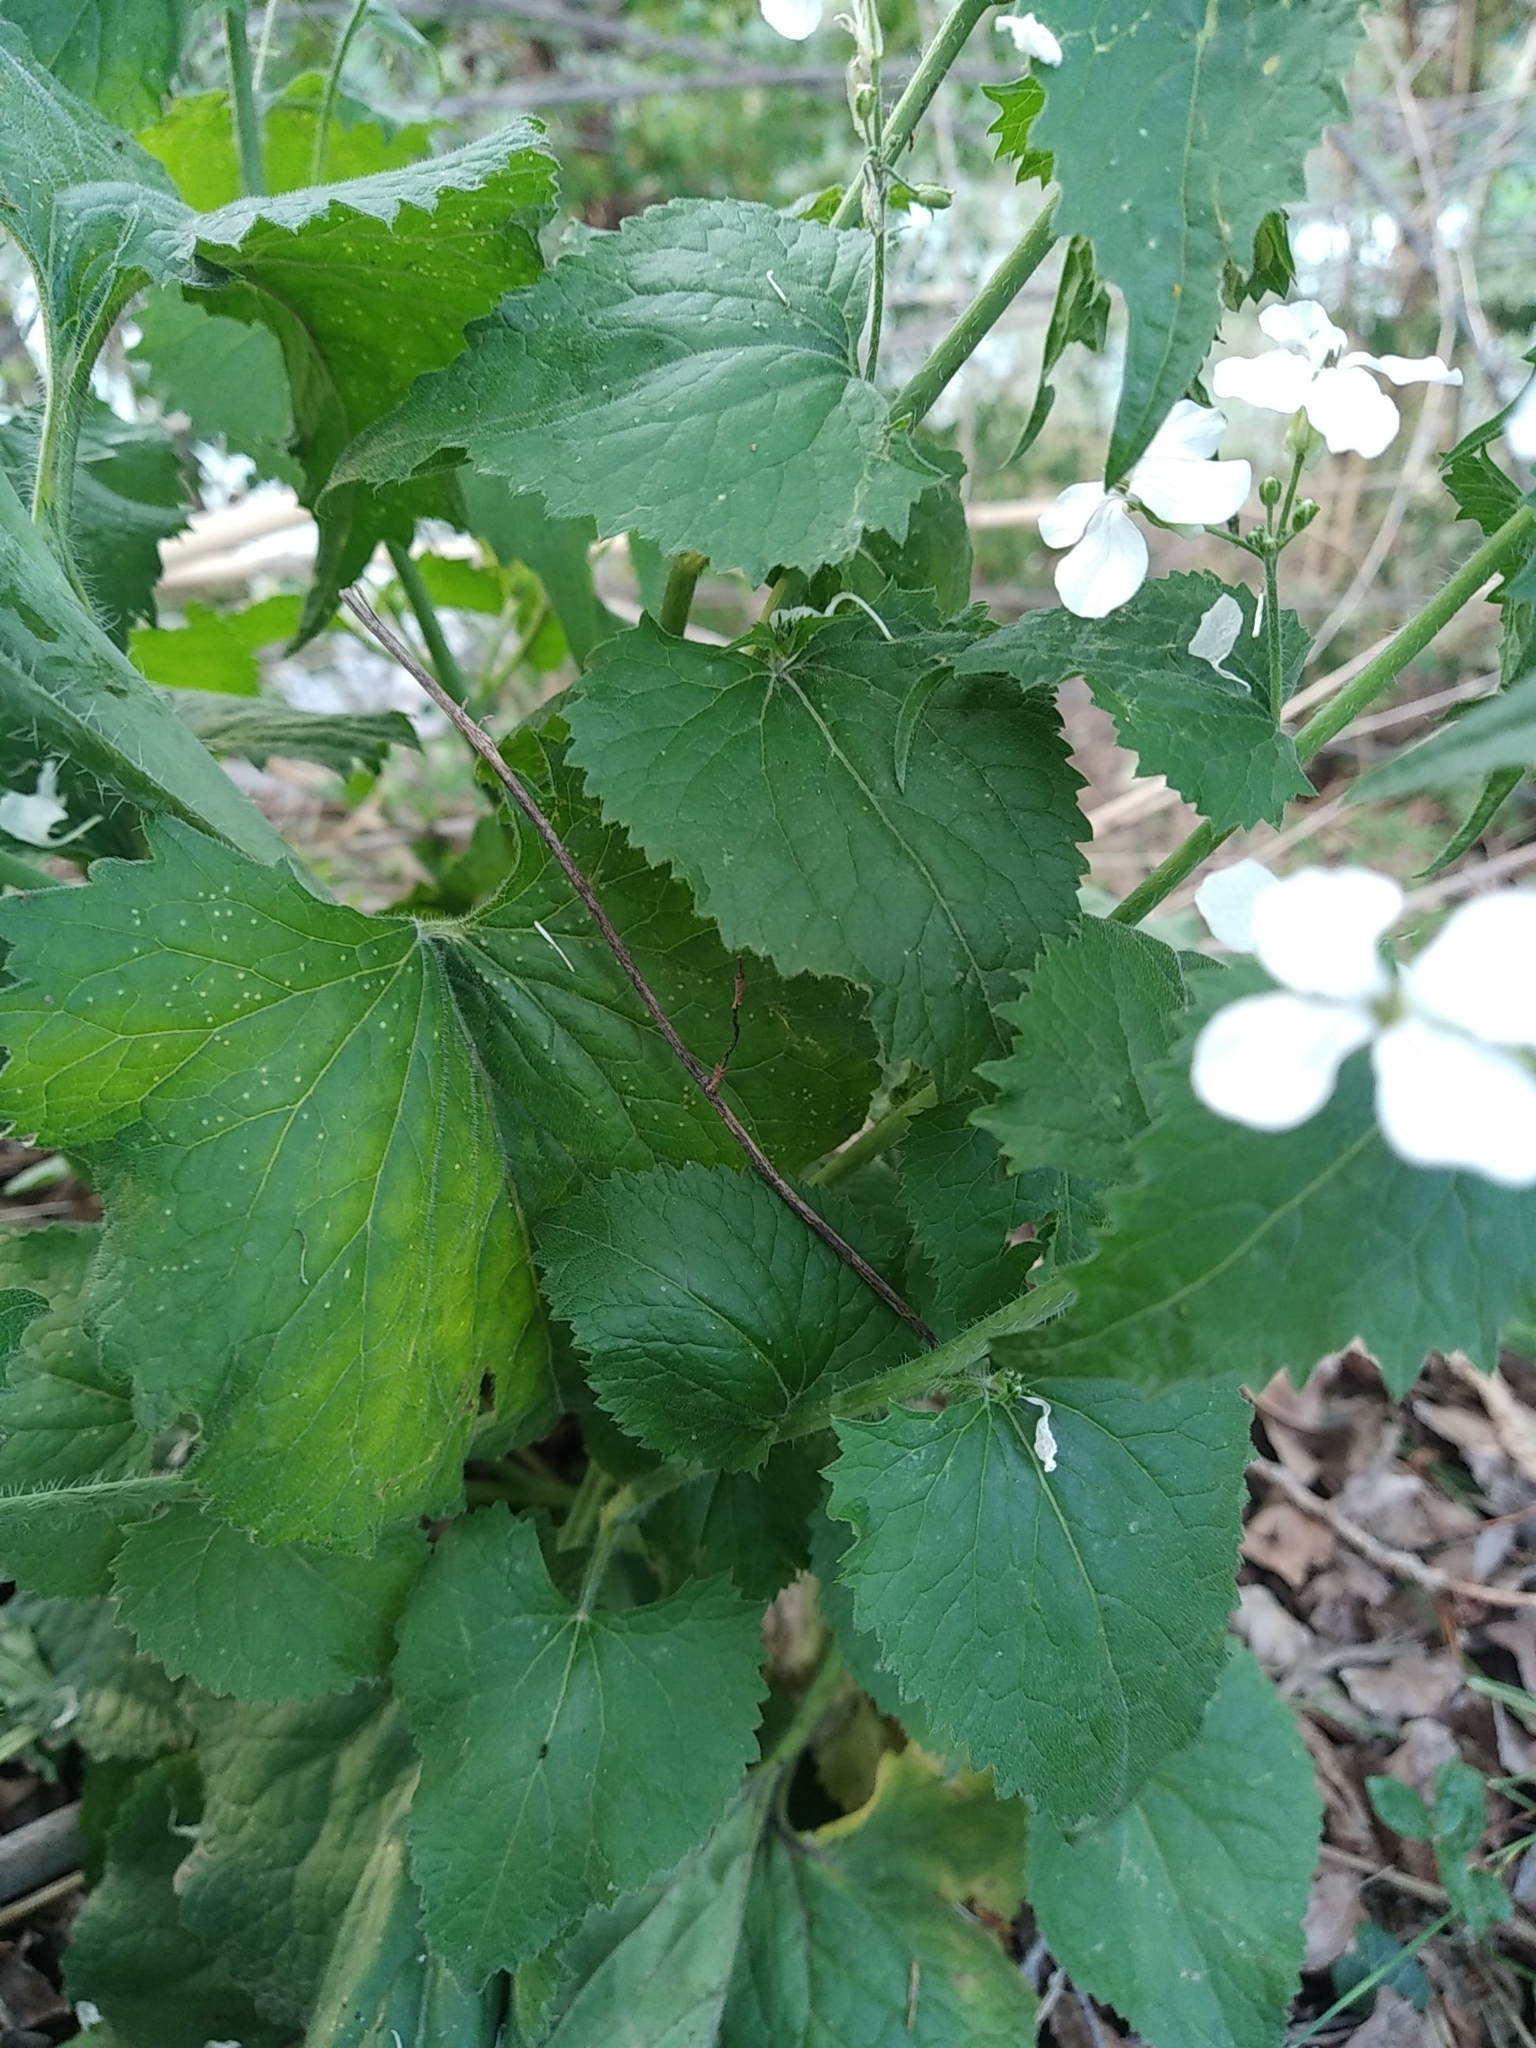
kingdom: Plantae
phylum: Tracheophyta
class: Magnoliopsida
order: Brassicales
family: Brassicaceae
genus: Lunaria
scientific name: Lunaria annua
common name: Honesty
